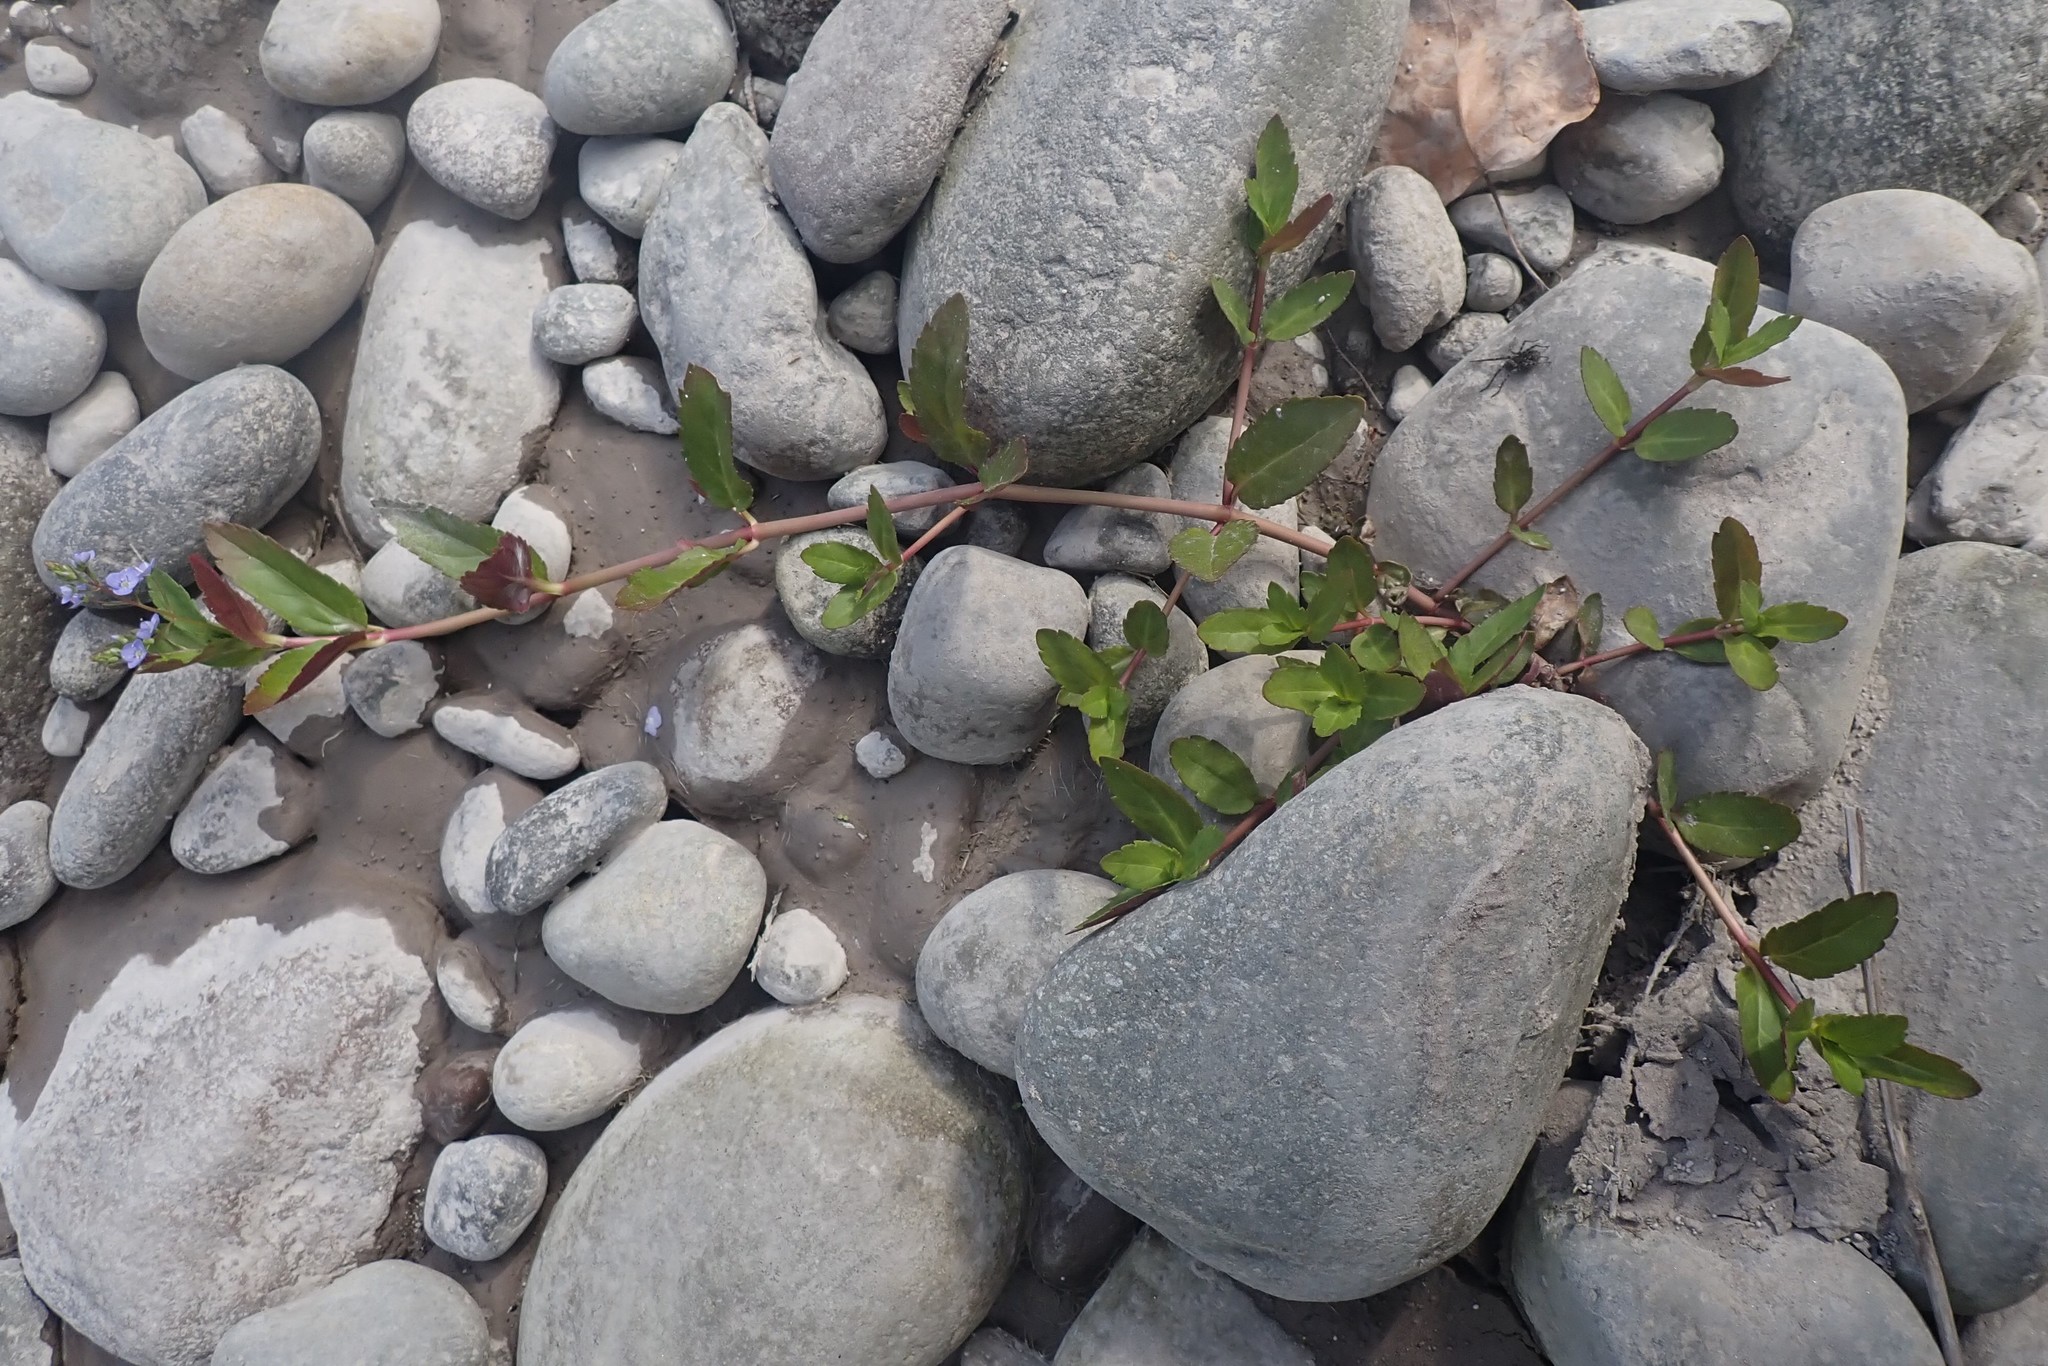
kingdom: Plantae
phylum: Tracheophyta
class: Magnoliopsida
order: Lamiales
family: Plantaginaceae
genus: Veronica
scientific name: Veronica americana
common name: American brooklime
